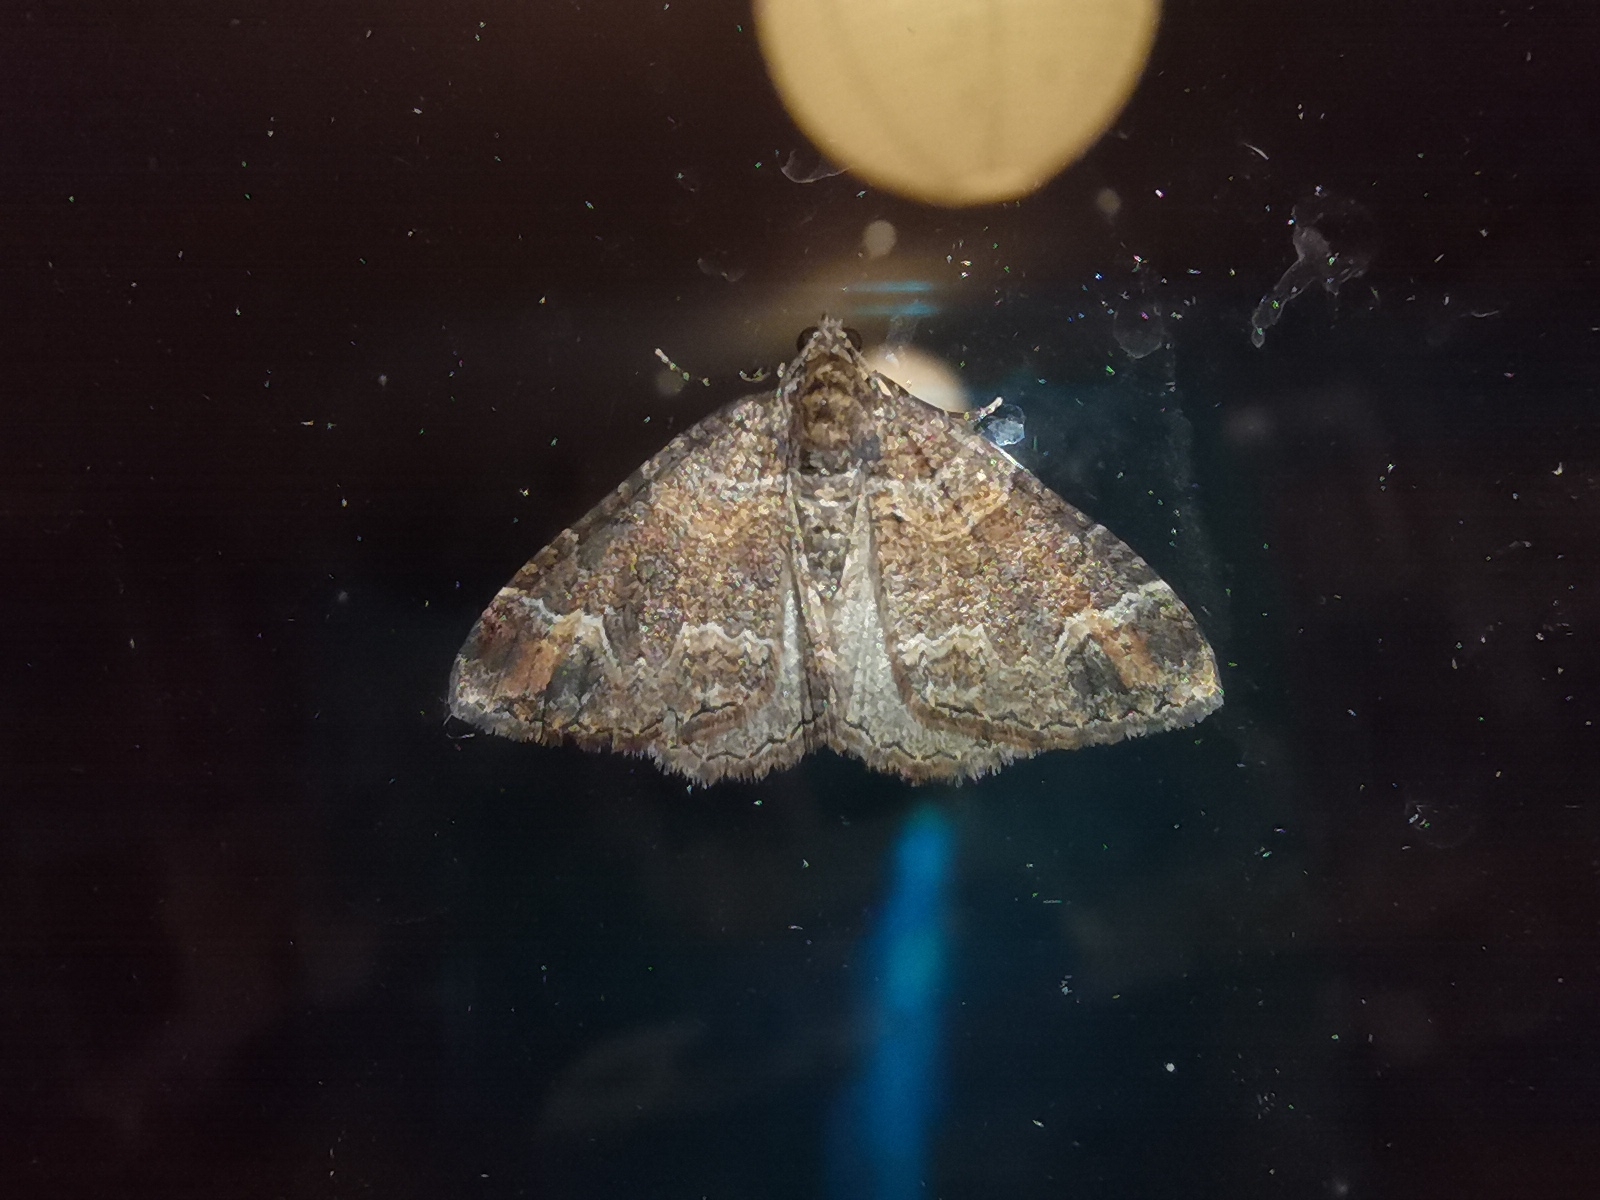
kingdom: Animalia
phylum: Arthropoda
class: Insecta
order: Lepidoptera
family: Geometridae
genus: Catarhoe
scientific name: Catarhoe basochesiata
